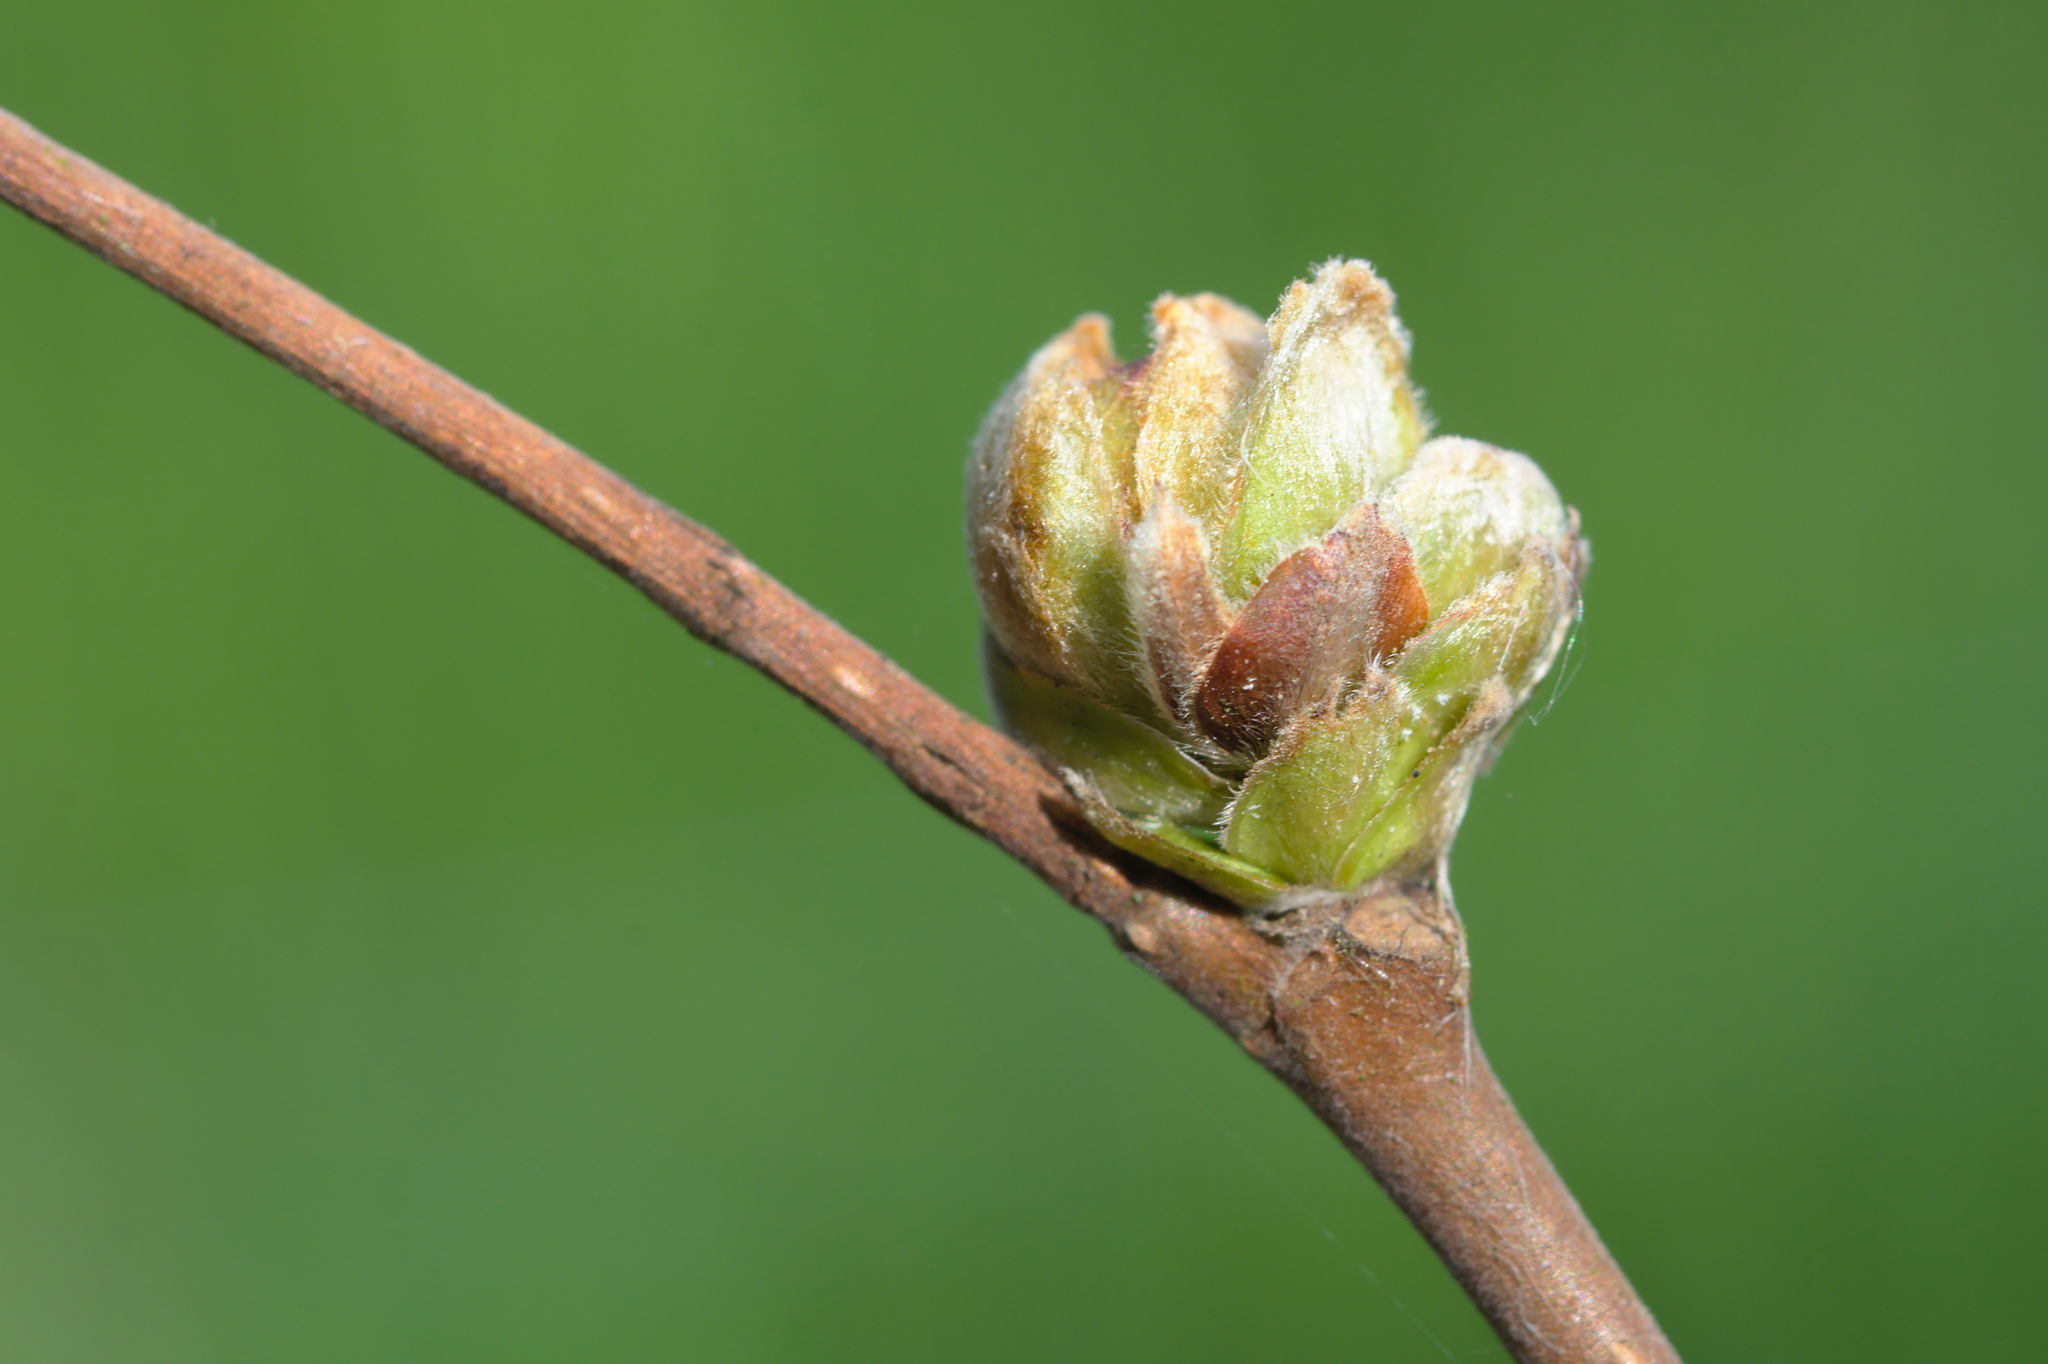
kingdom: Animalia
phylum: Arthropoda
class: Arachnida
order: Trombidiformes
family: Phytoptidae
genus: Phytoptus
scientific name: Phytoptus avellanae
